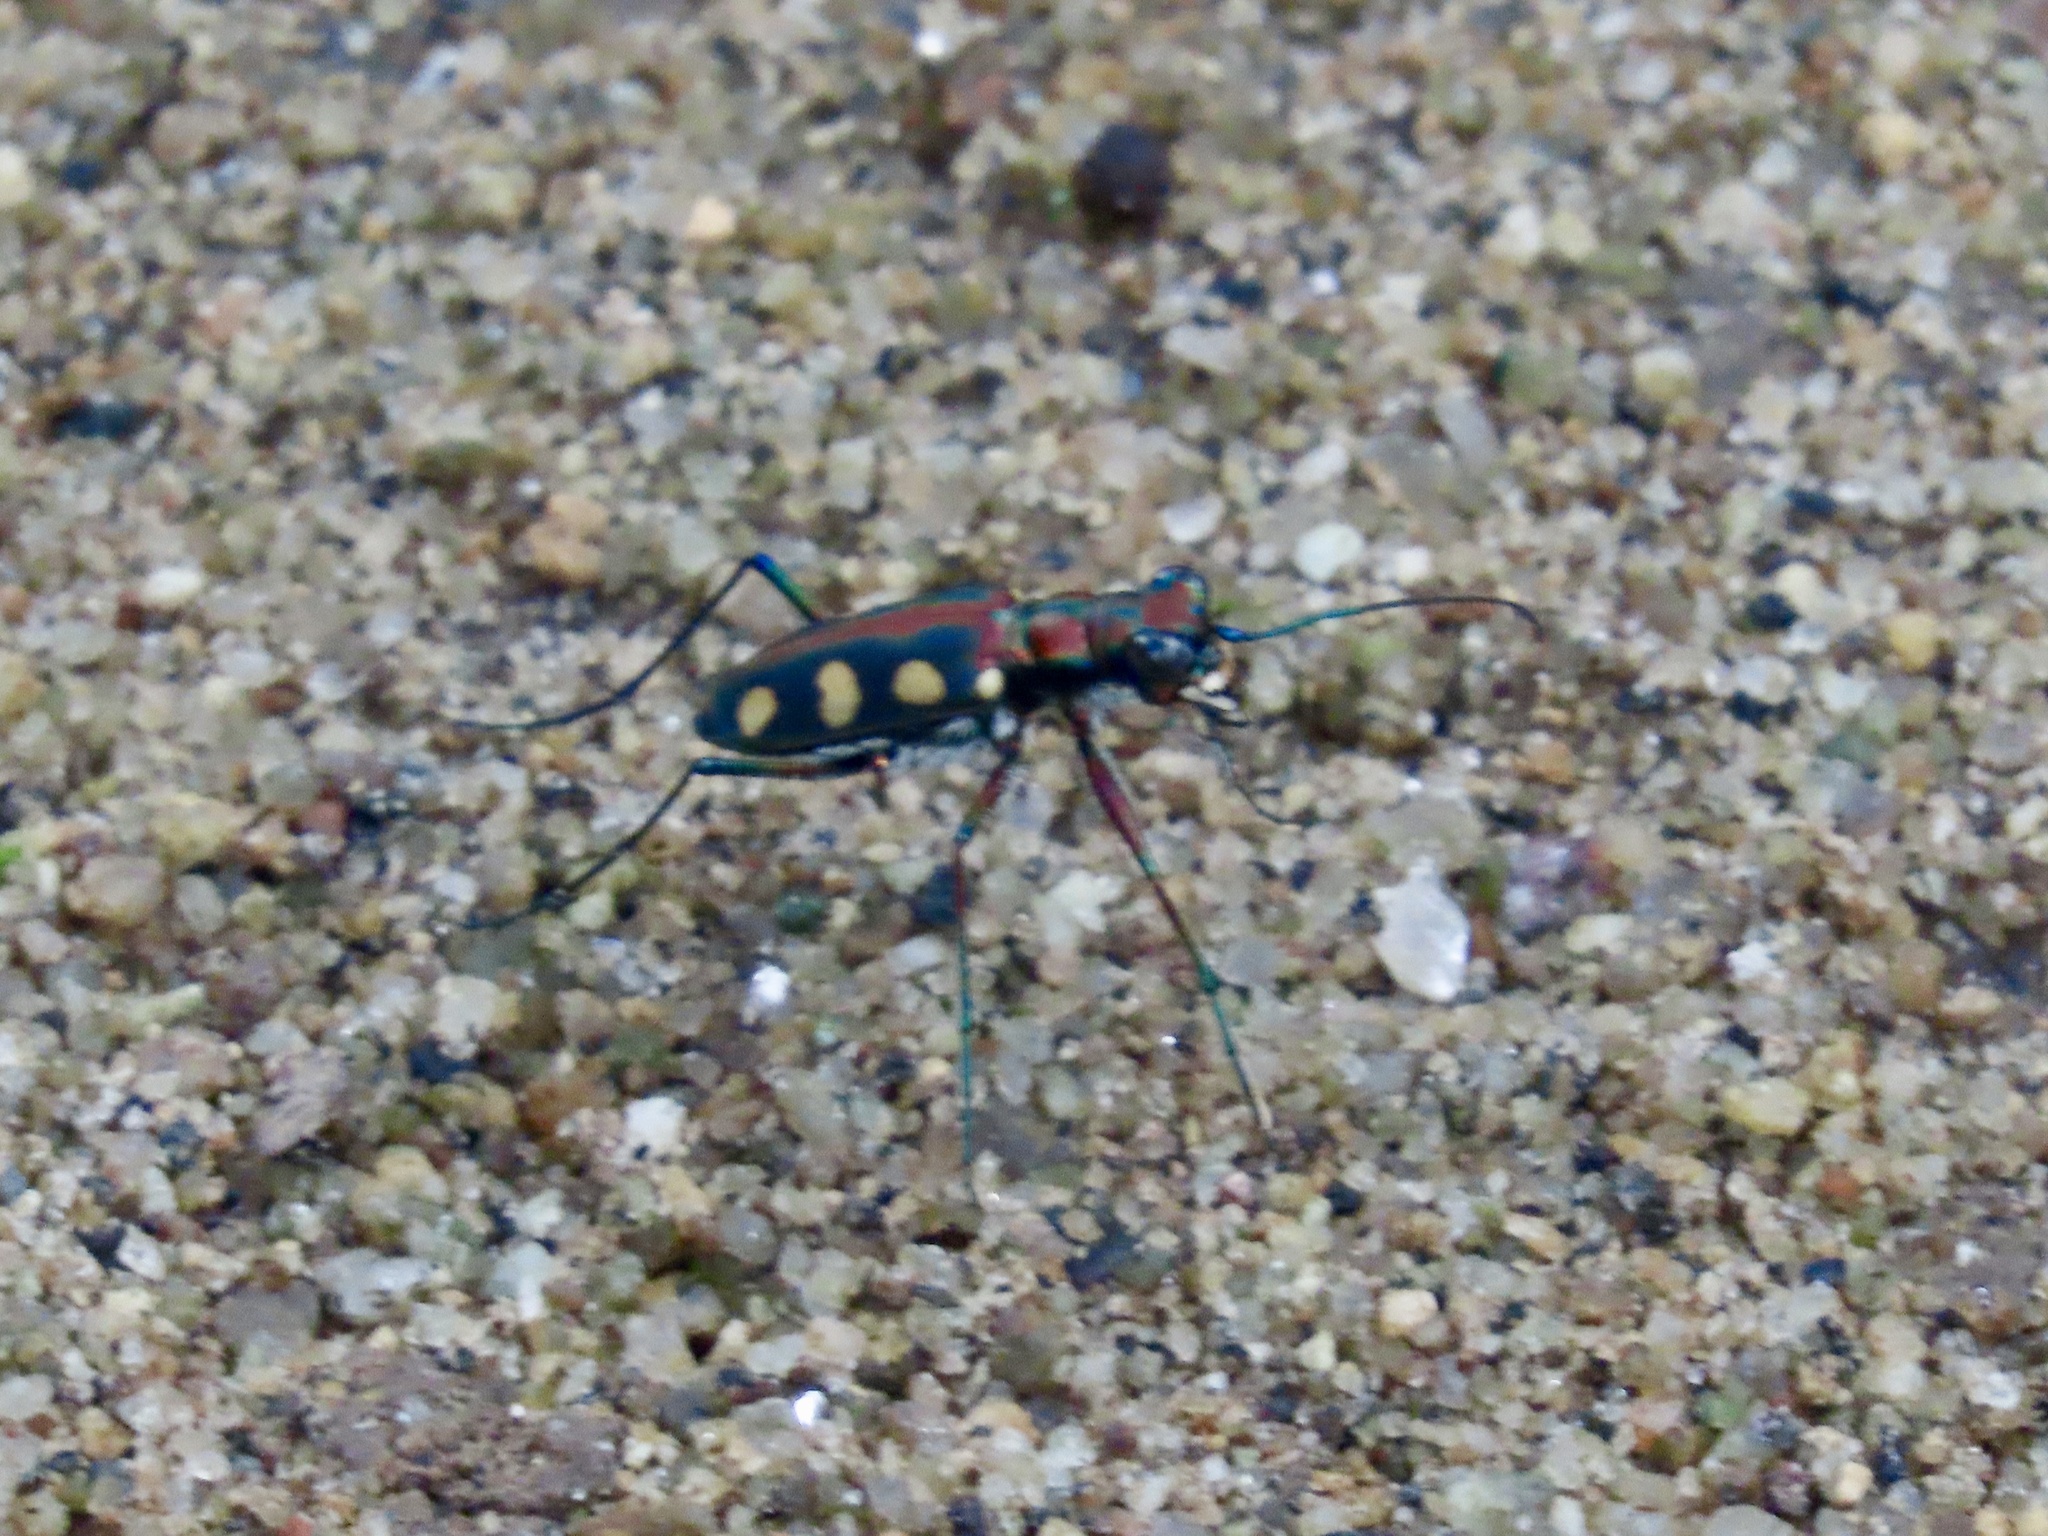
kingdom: Animalia
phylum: Arthropoda
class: Insecta
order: Coleoptera
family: Carabidae
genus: Cicindela
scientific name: Cicindela aurulenta
